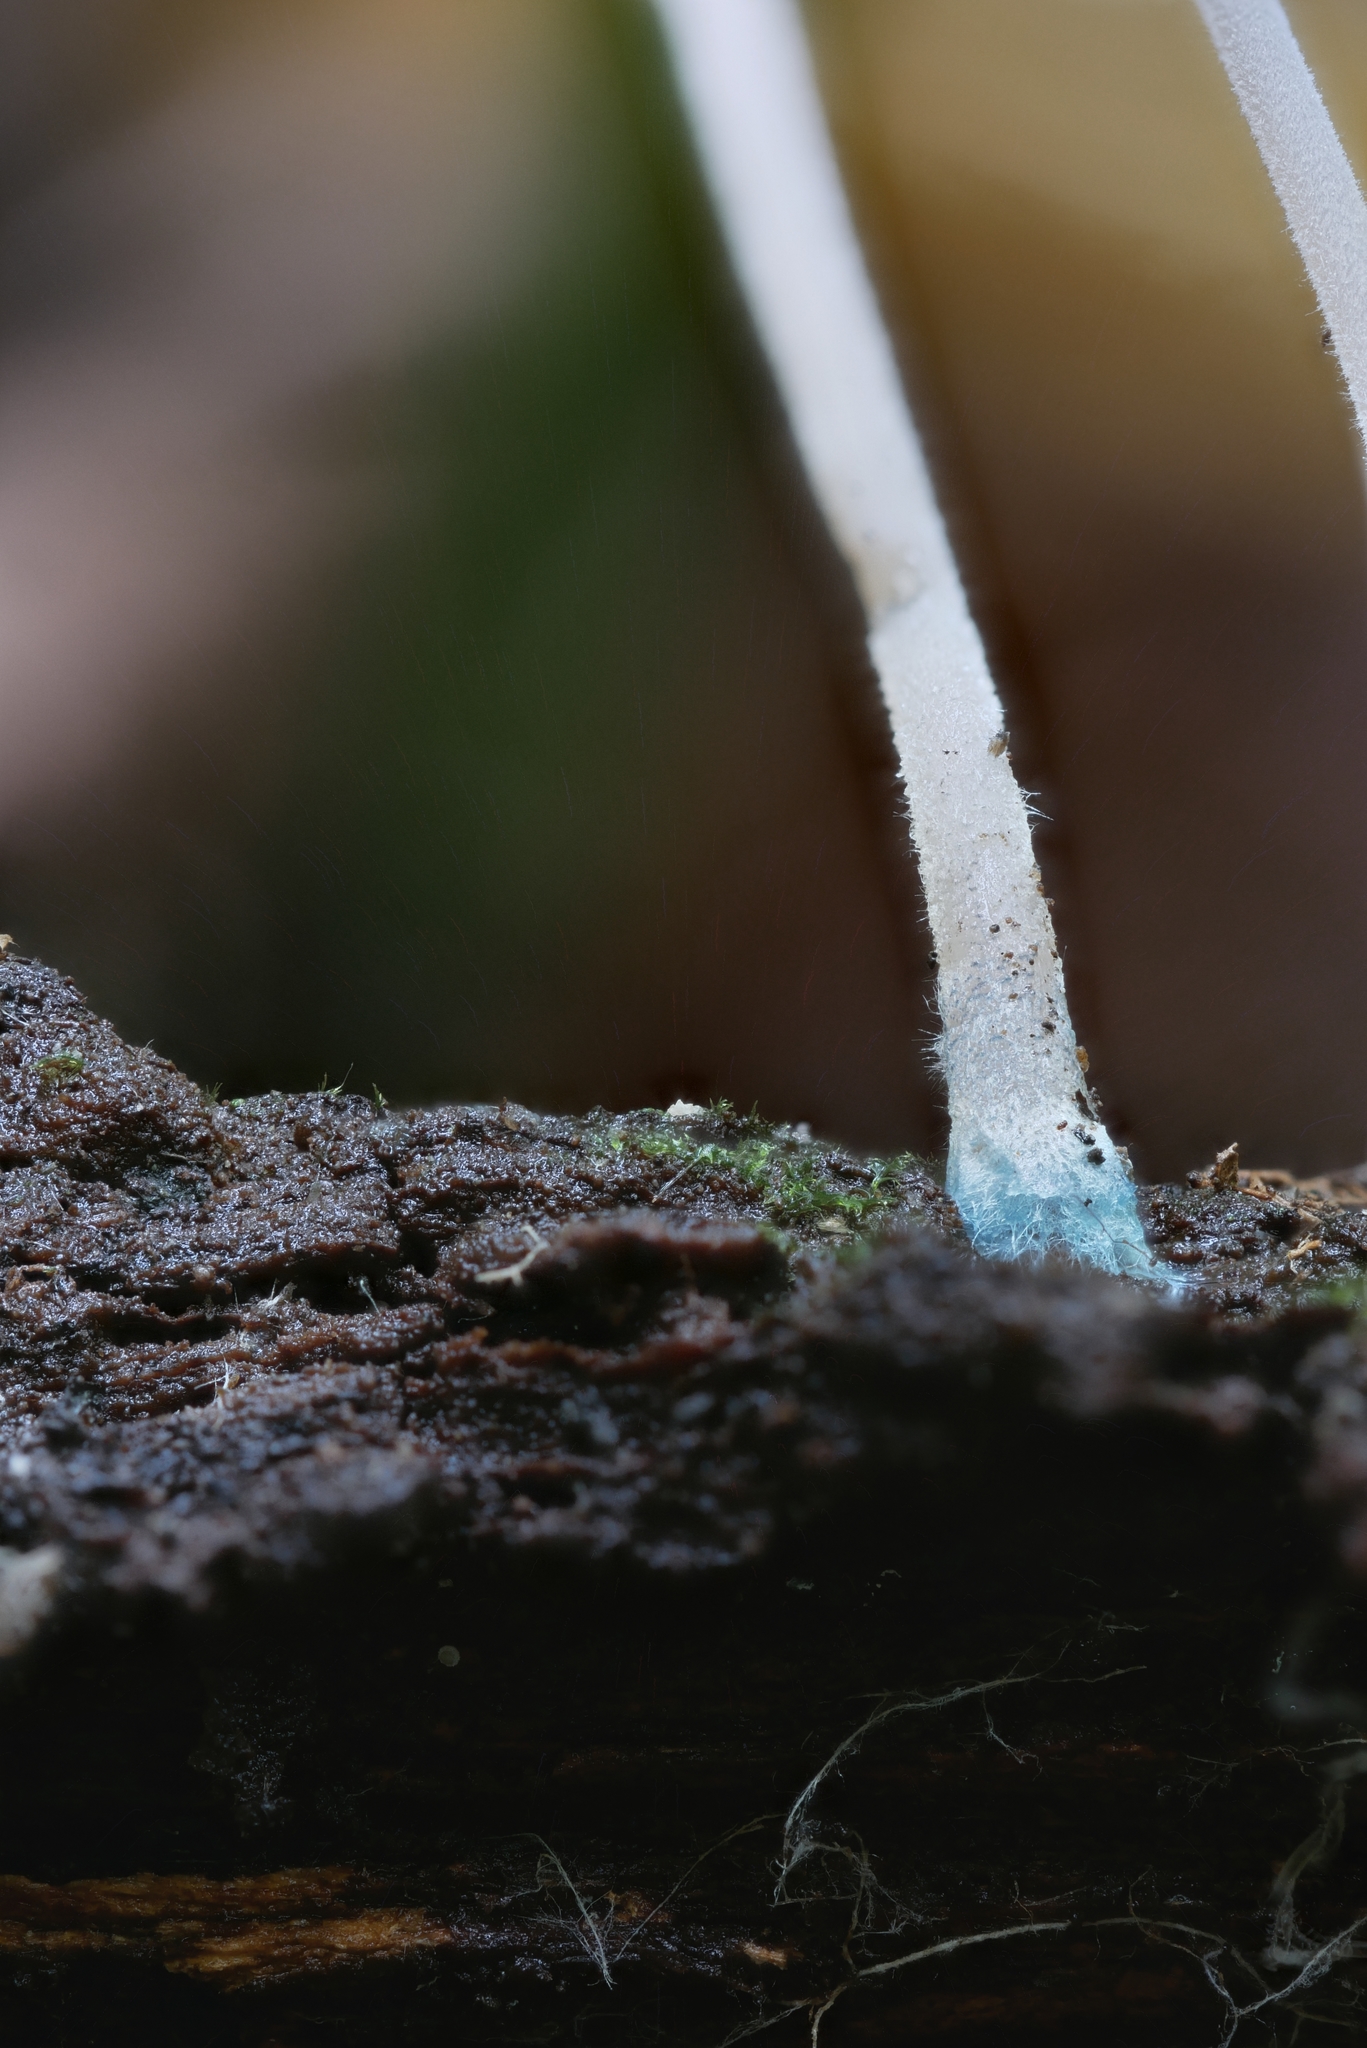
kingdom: Fungi
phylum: Basidiomycota
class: Agaricomycetes
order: Agaricales
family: Mycenaceae
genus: Mycena
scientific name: Mycena subcaerulea
